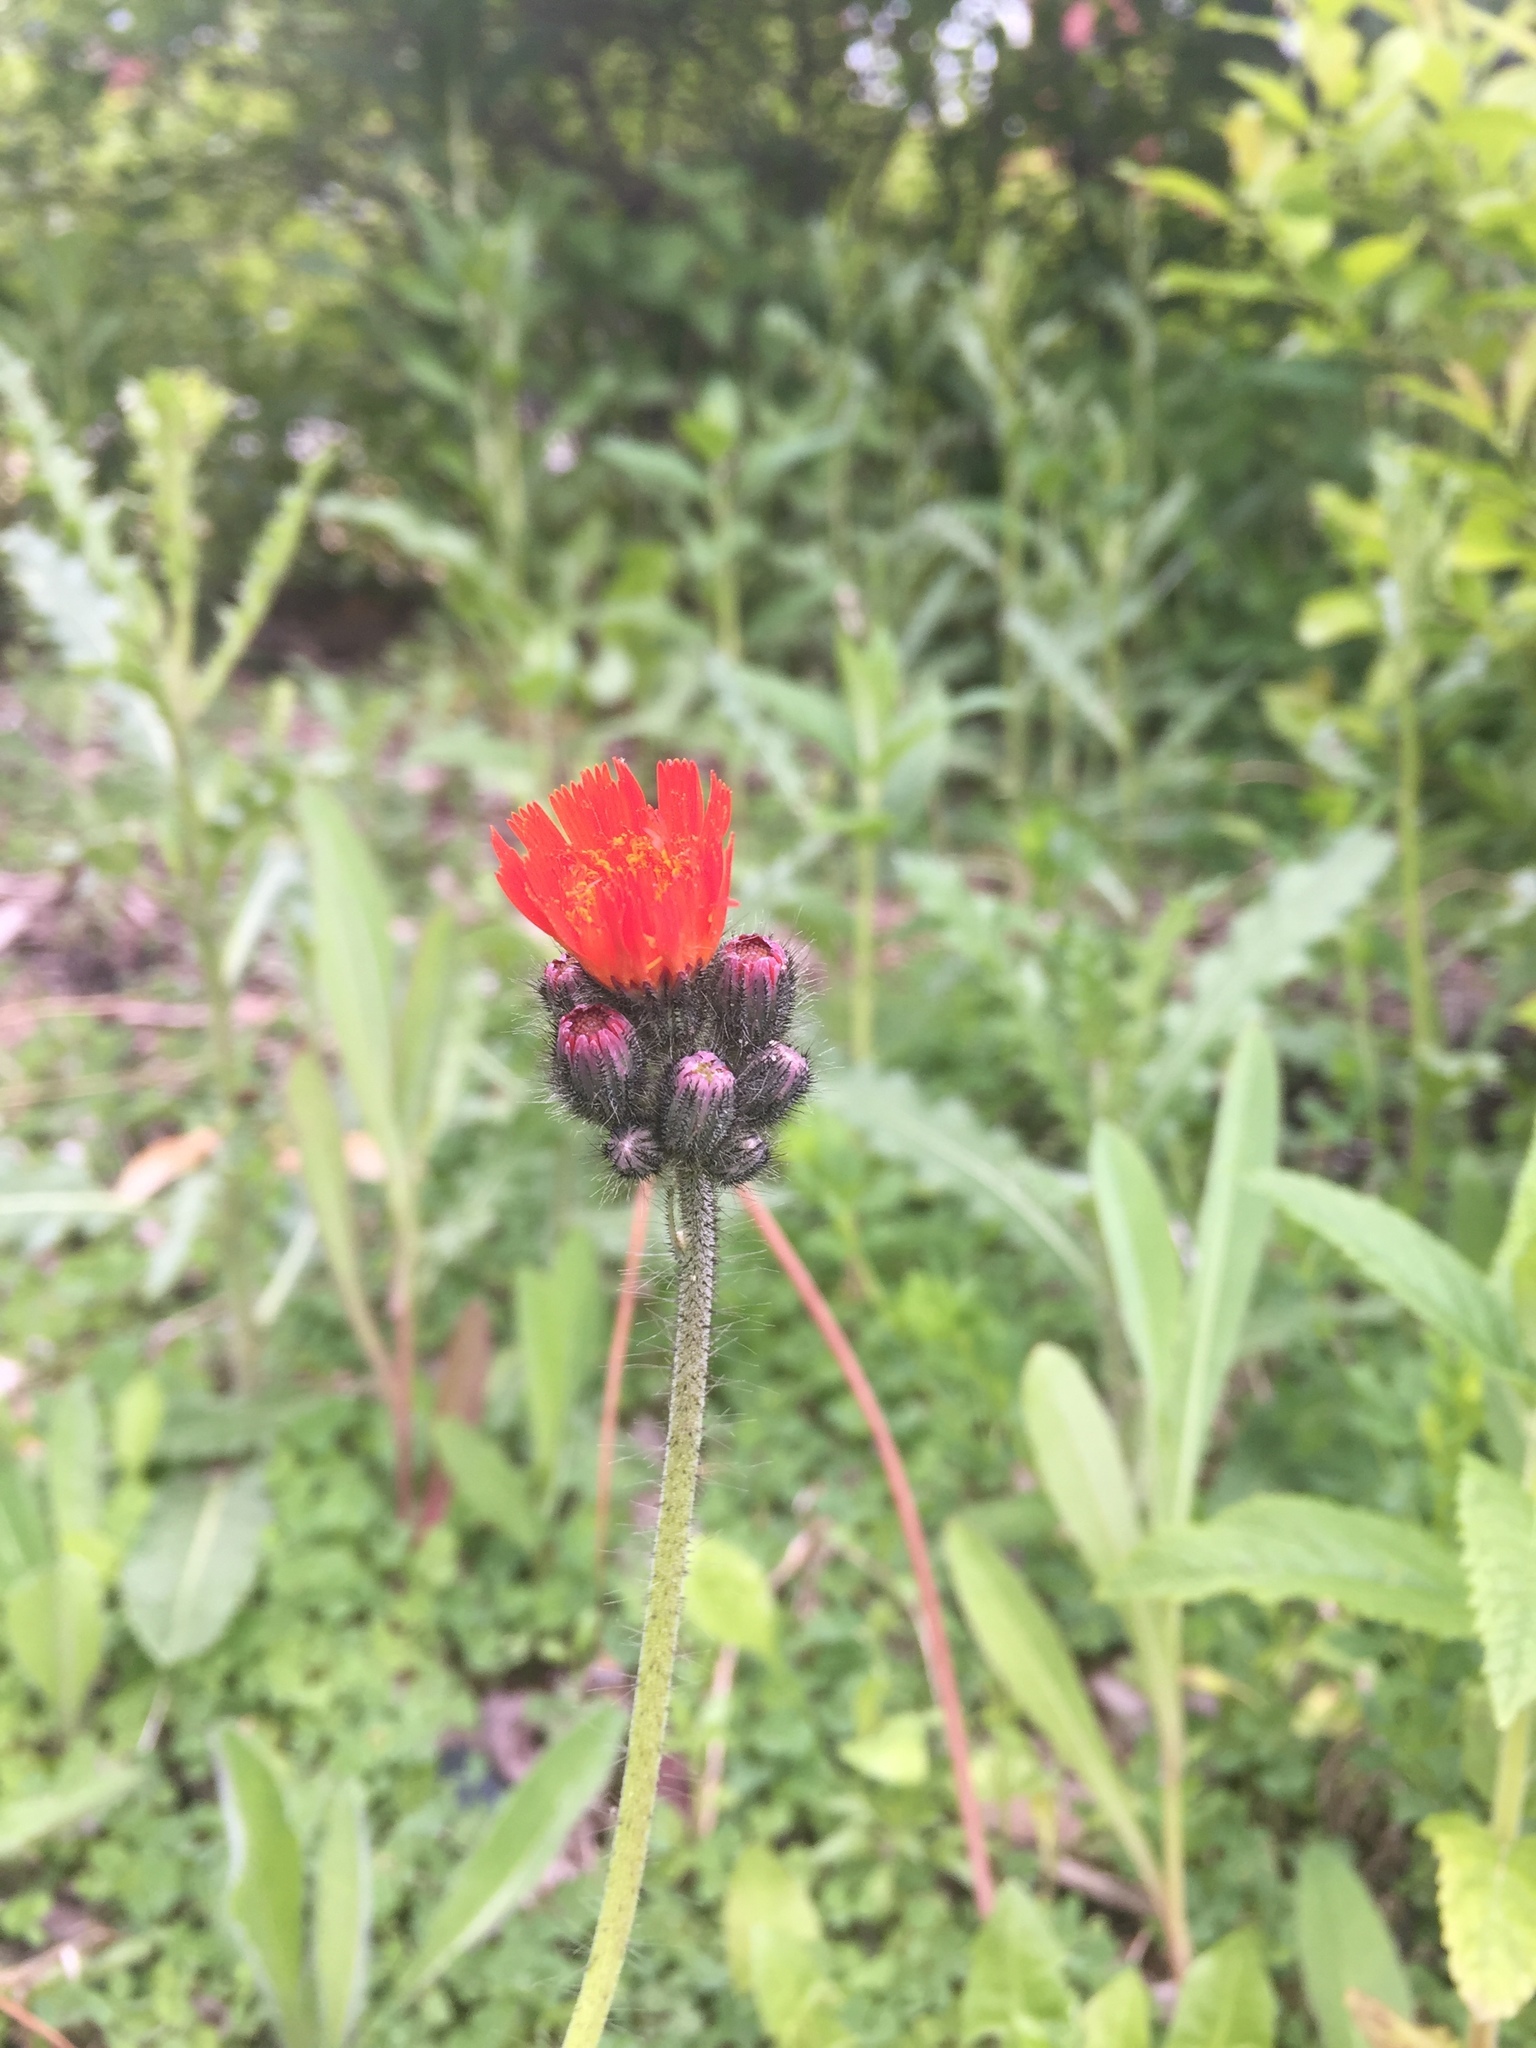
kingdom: Plantae
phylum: Tracheophyta
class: Magnoliopsida
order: Asterales
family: Asteraceae
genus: Pilosella
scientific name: Pilosella aurantiaca
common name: Fox-and-cubs
